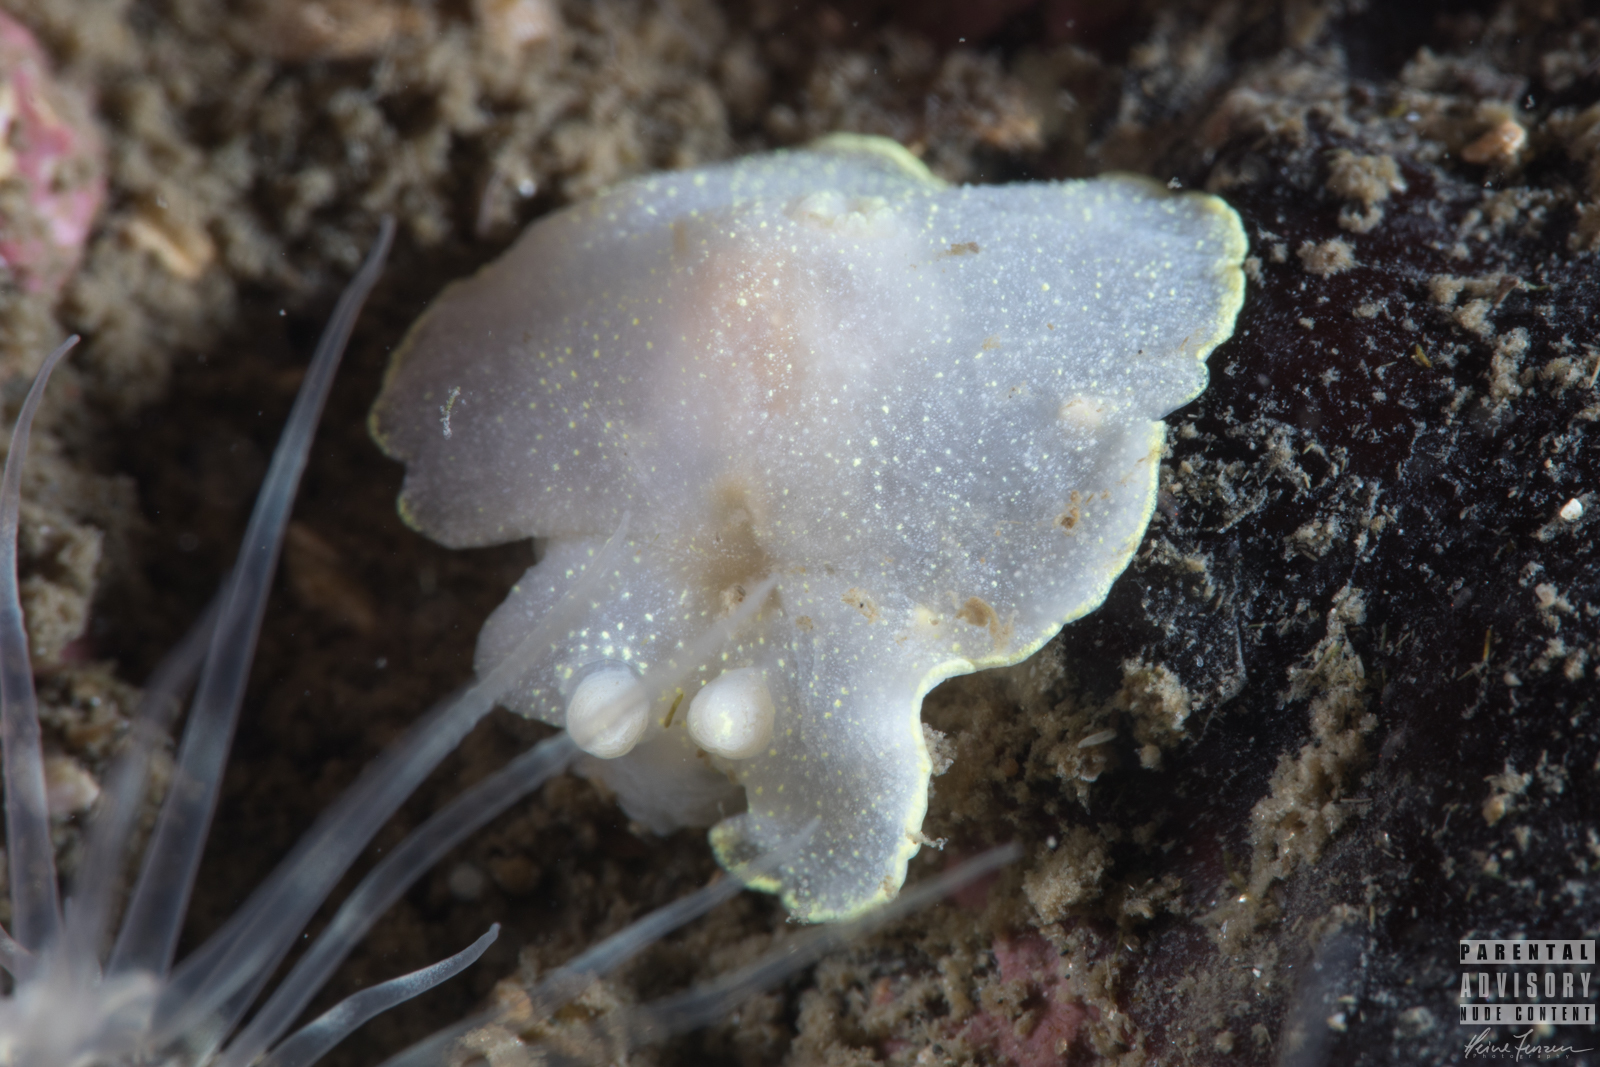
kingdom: Animalia
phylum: Mollusca
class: Gastropoda
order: Nudibranchia
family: Cadlinidae
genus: Cadlina
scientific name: Cadlina laevis
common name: White atlantic cadlina
